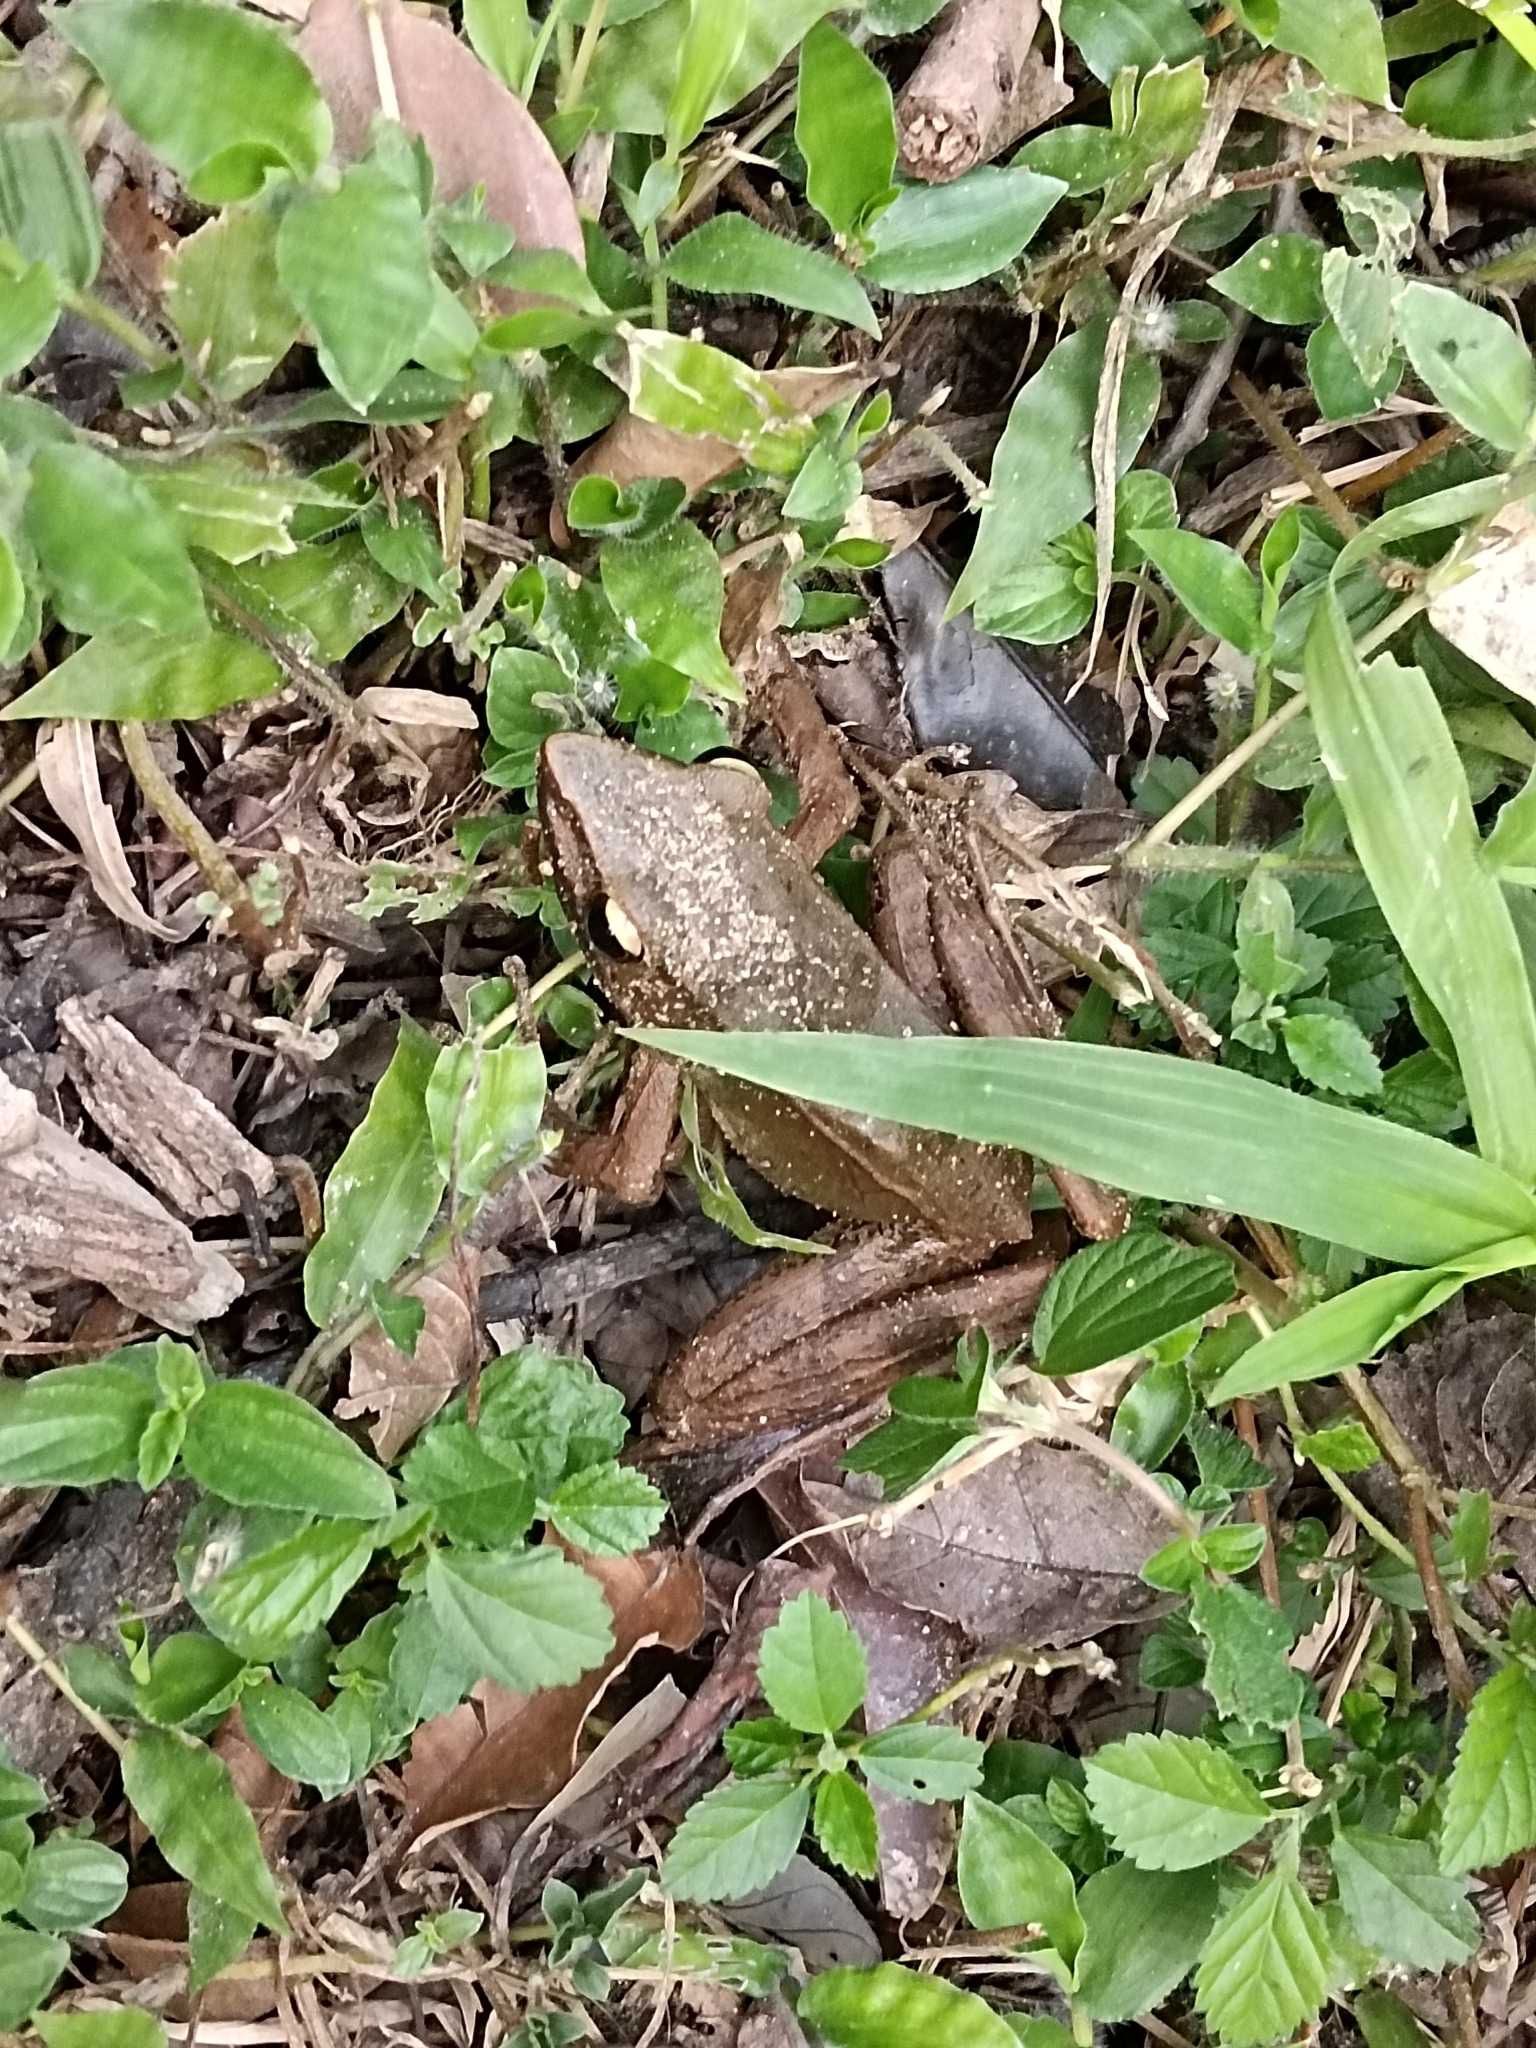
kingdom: Animalia
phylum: Chordata
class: Amphibia
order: Anura
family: Ranidae
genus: Indosylvirana
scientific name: Indosylvirana sreeni
